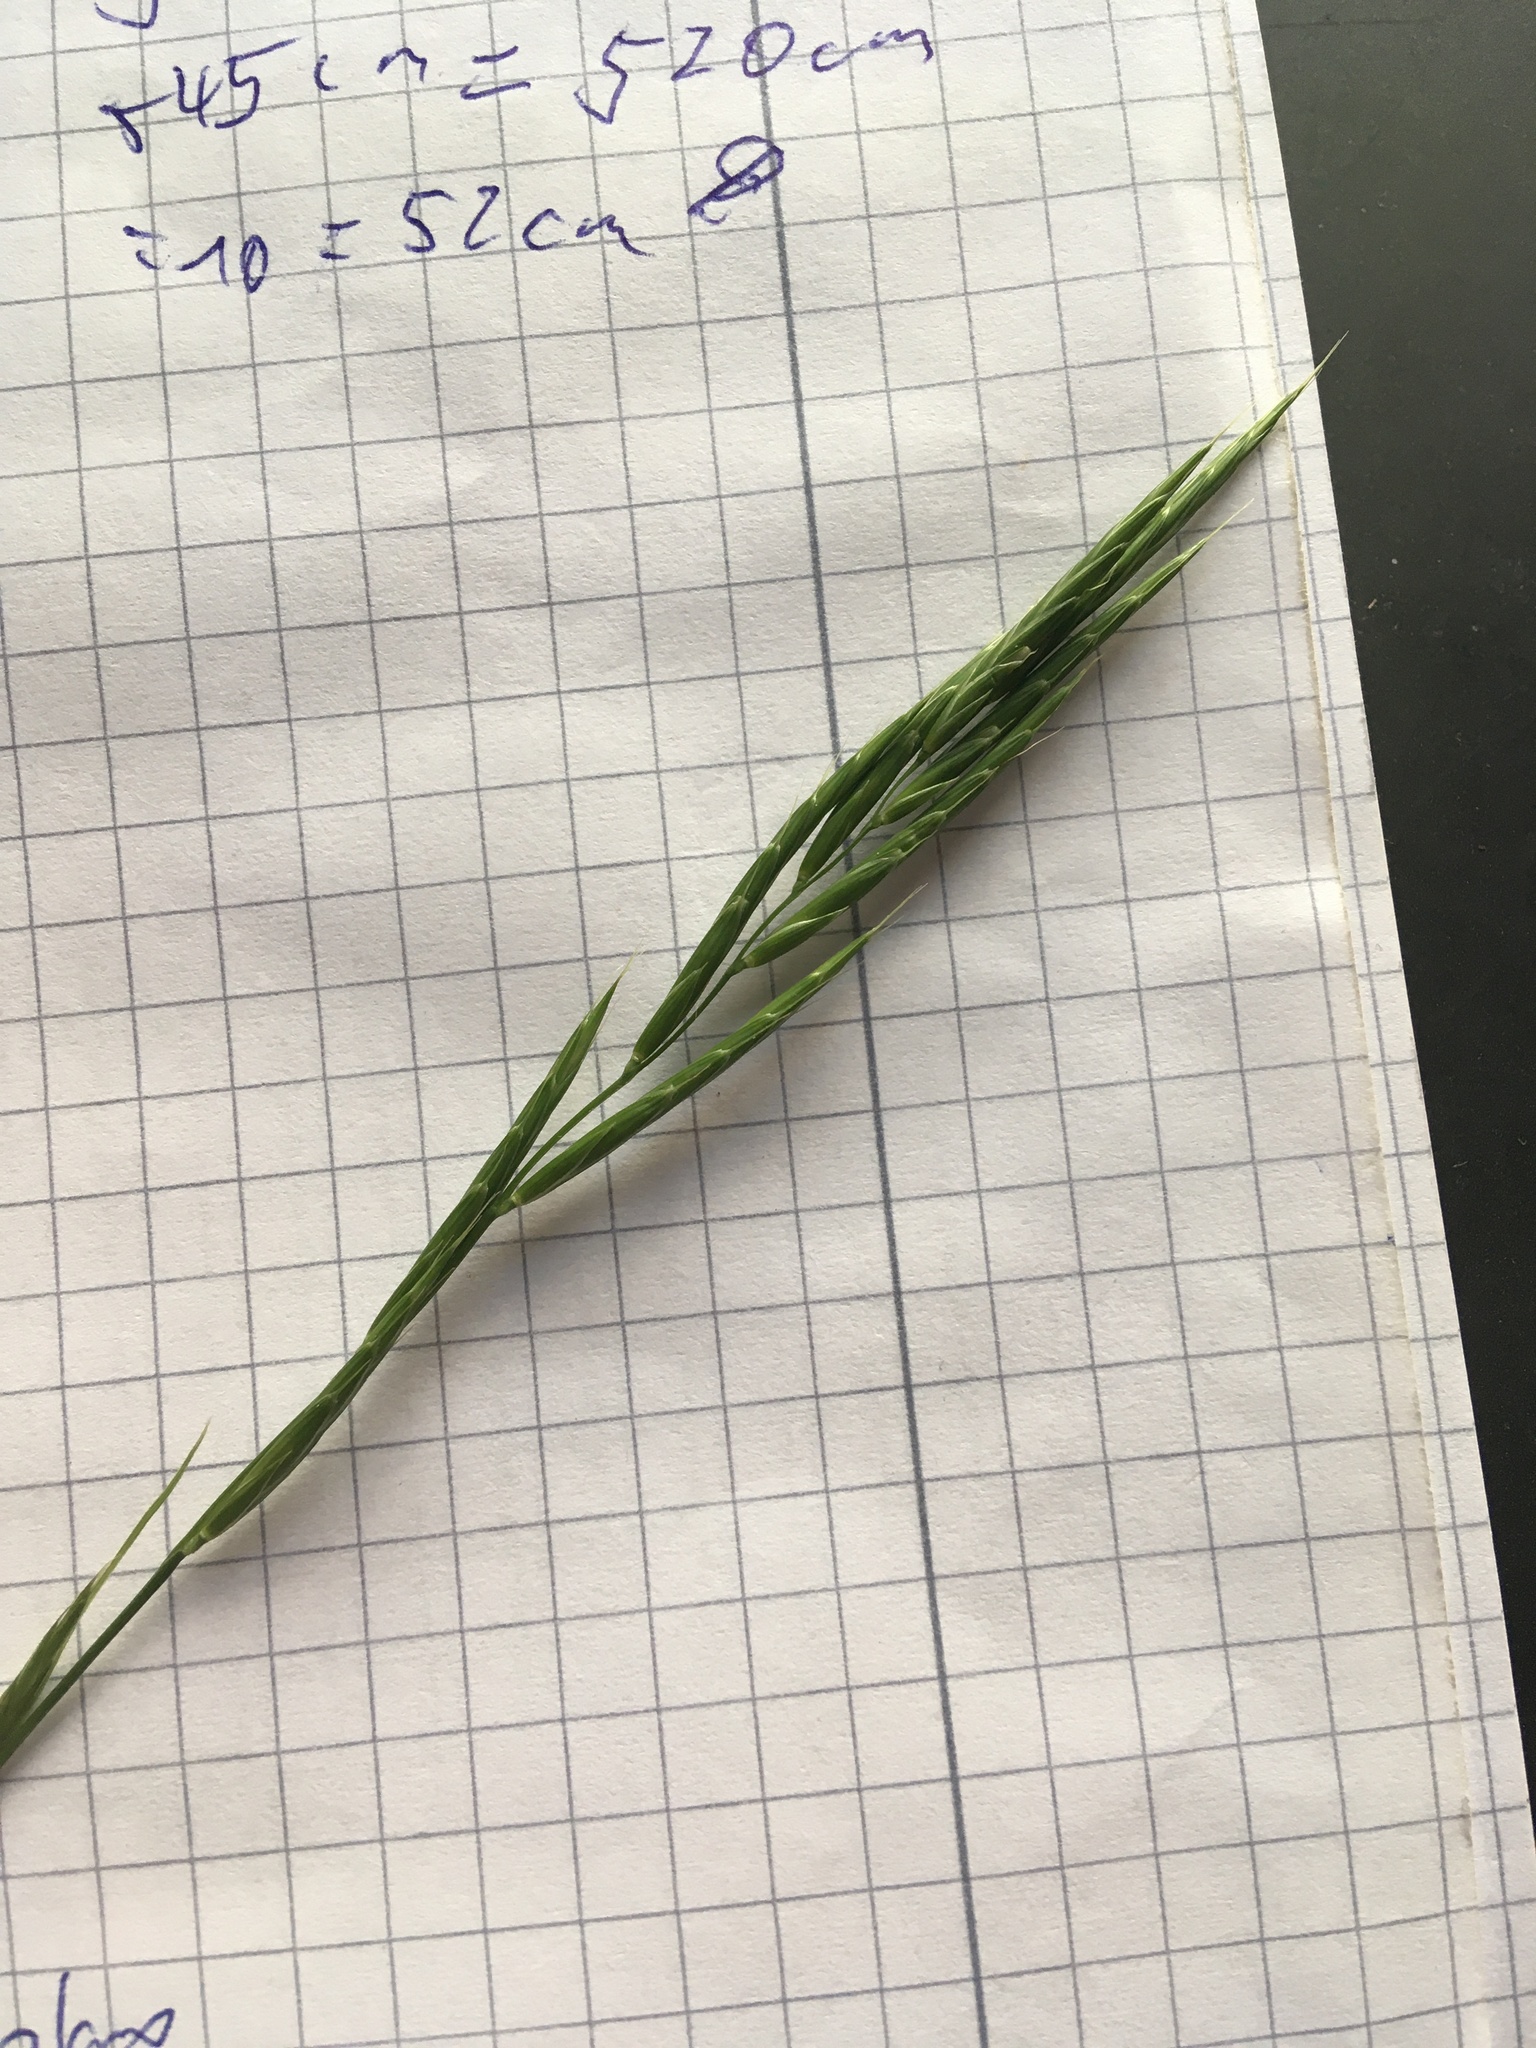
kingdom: Plantae
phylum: Tracheophyta
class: Liliopsida
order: Poales
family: Poaceae
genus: Brachypodium
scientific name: Brachypodium pinnatum
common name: Tor grass
